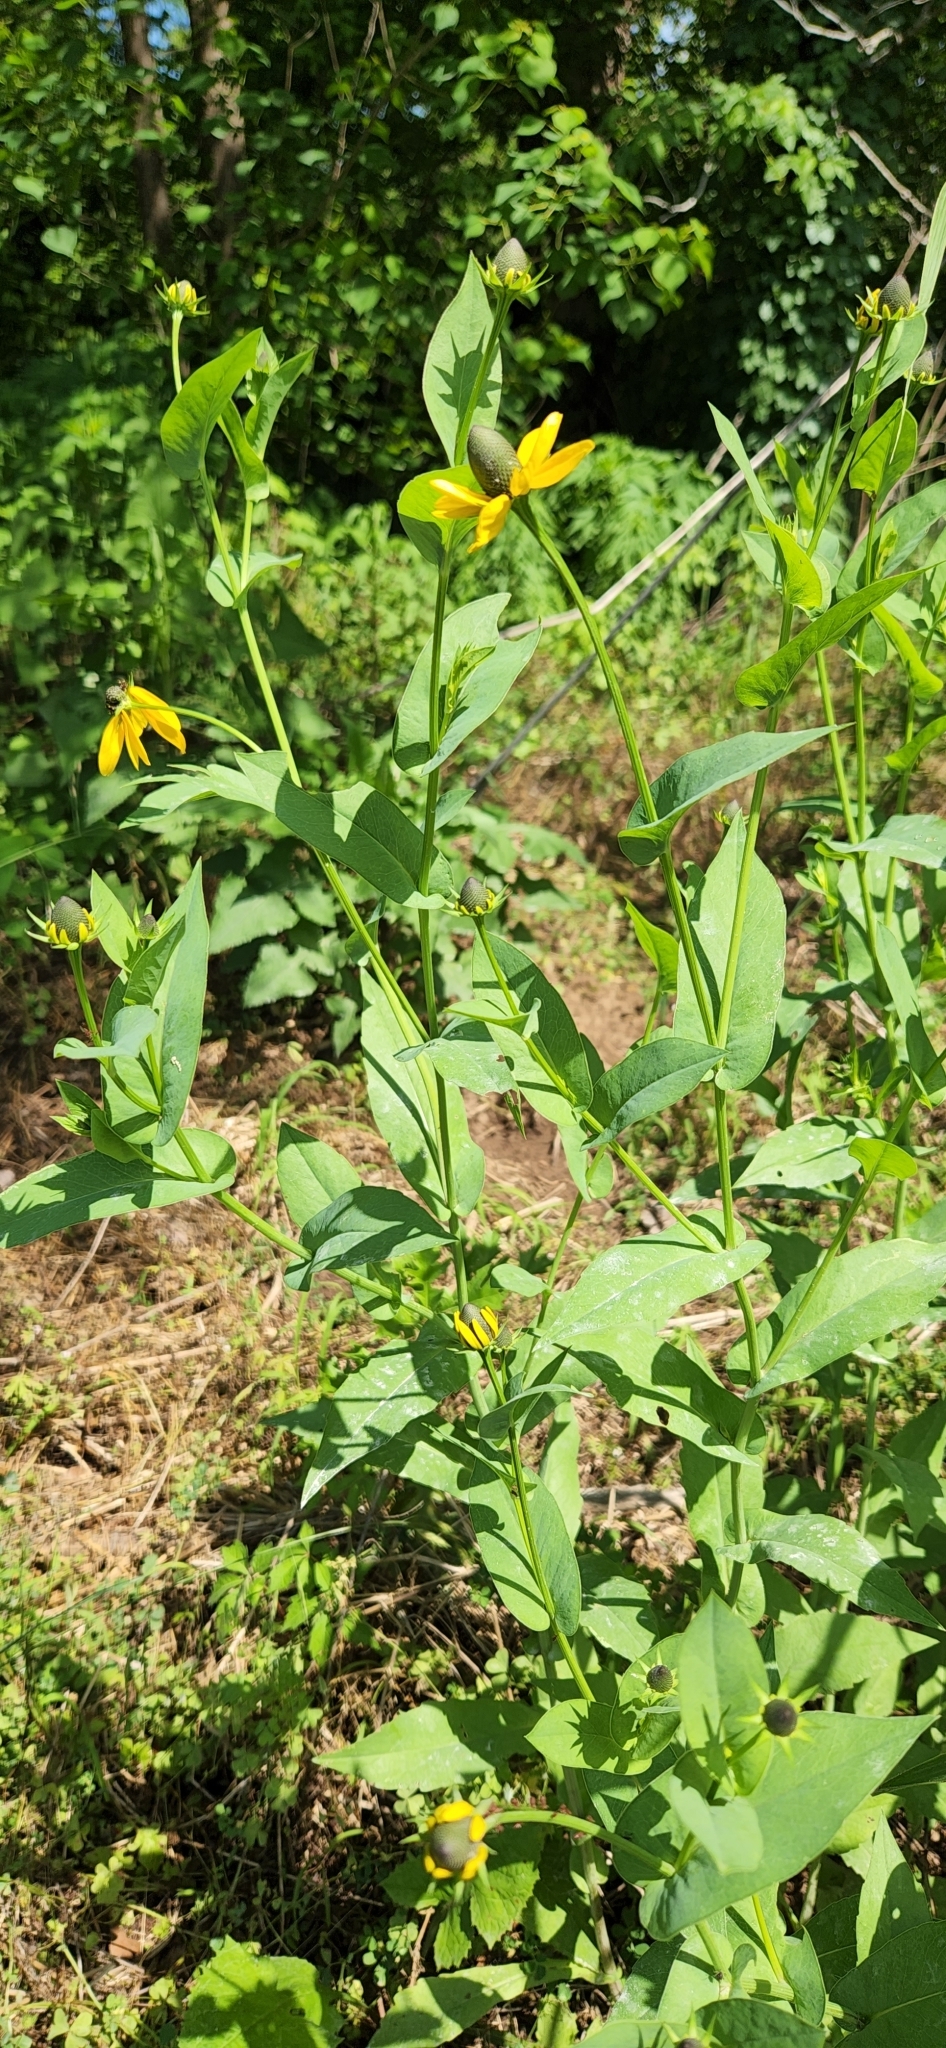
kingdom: Plantae
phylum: Tracheophyta
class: Magnoliopsida
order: Asterales
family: Asteraceae
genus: Rudbeckia
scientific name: Rudbeckia amplexicaulis
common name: Clasping-leaf coneflower
